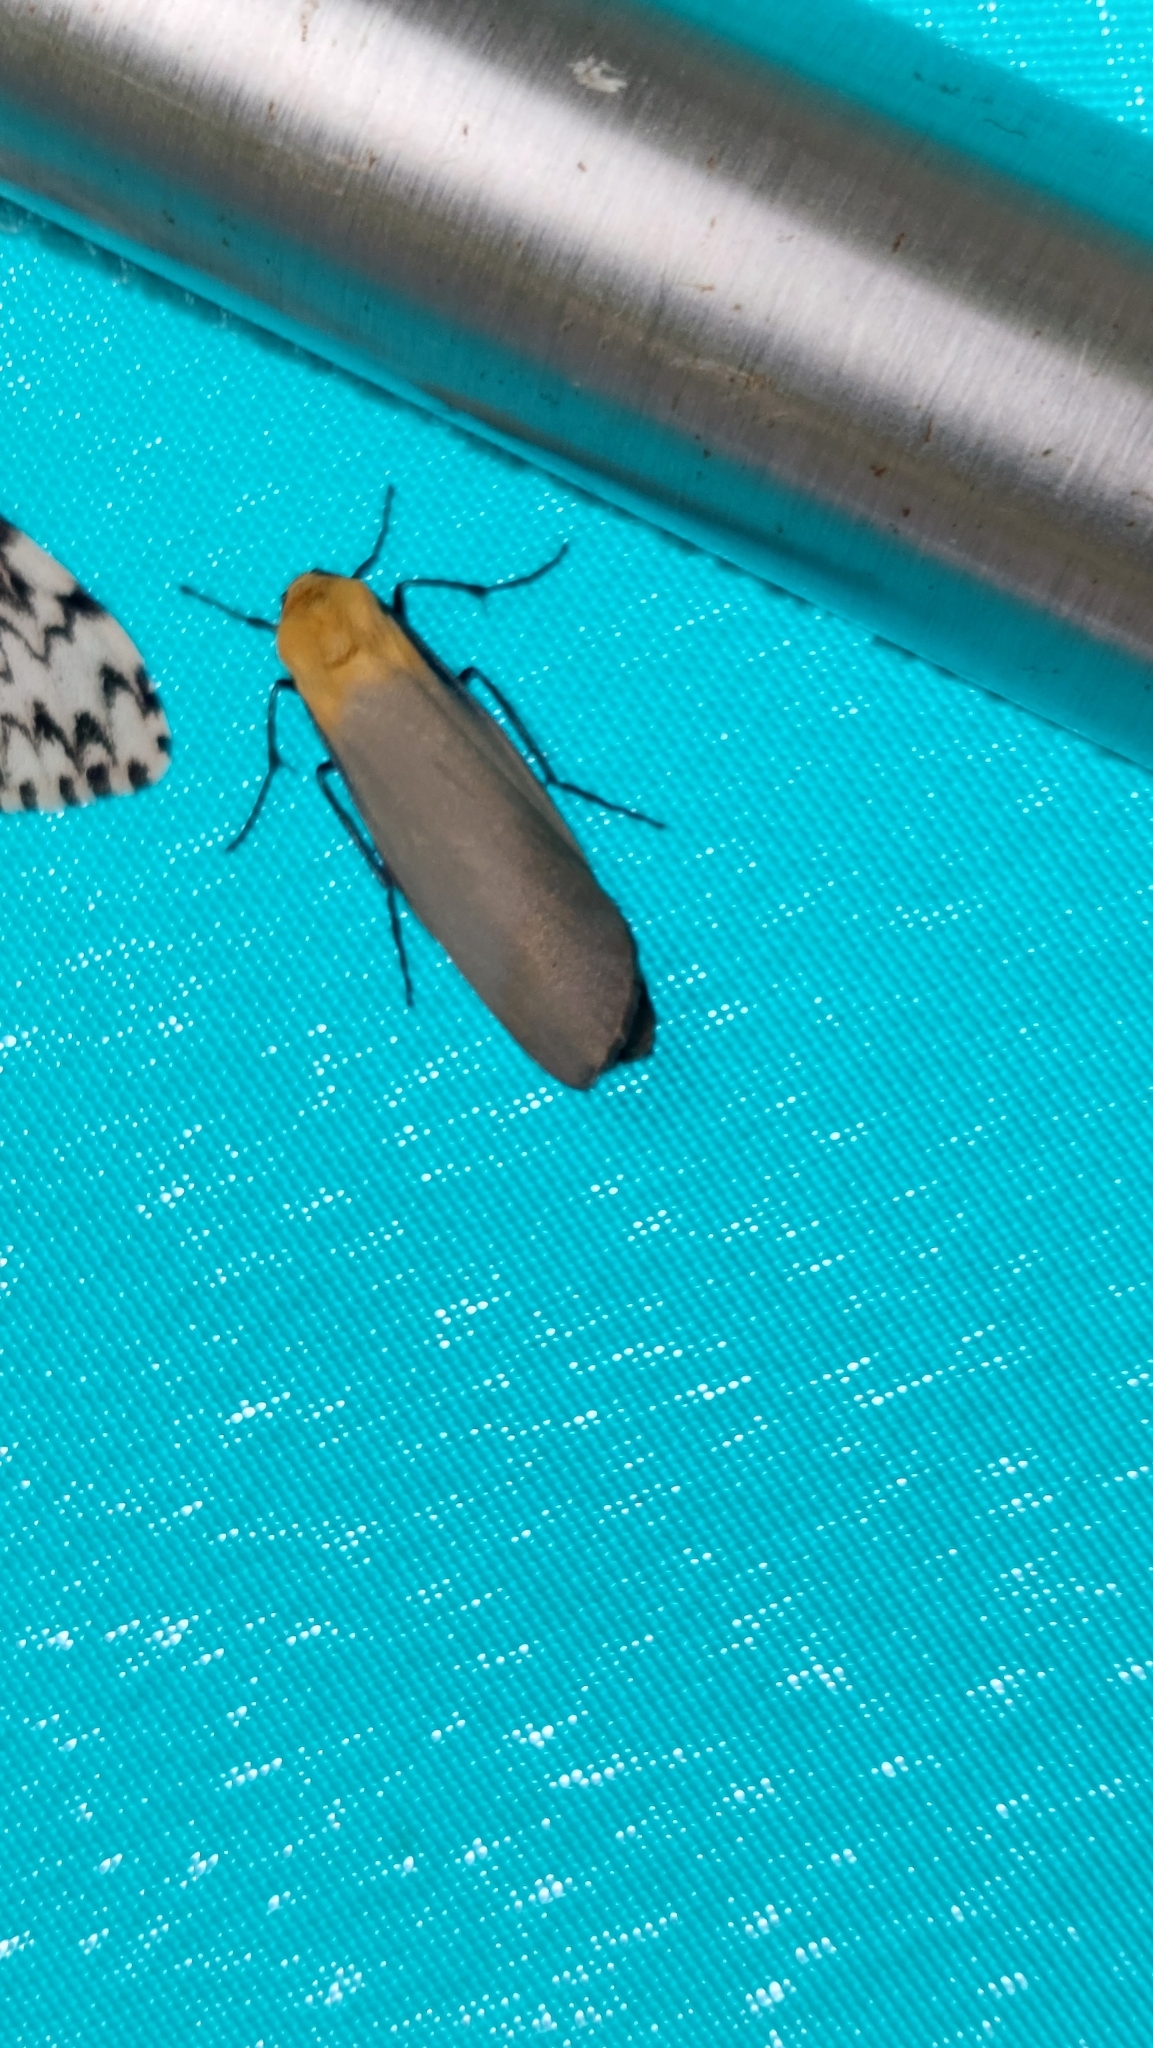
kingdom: Animalia
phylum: Arthropoda
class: Insecta
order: Lepidoptera
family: Erebidae
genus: Lithosia
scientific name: Lithosia quadra
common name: Four-spotted footman
